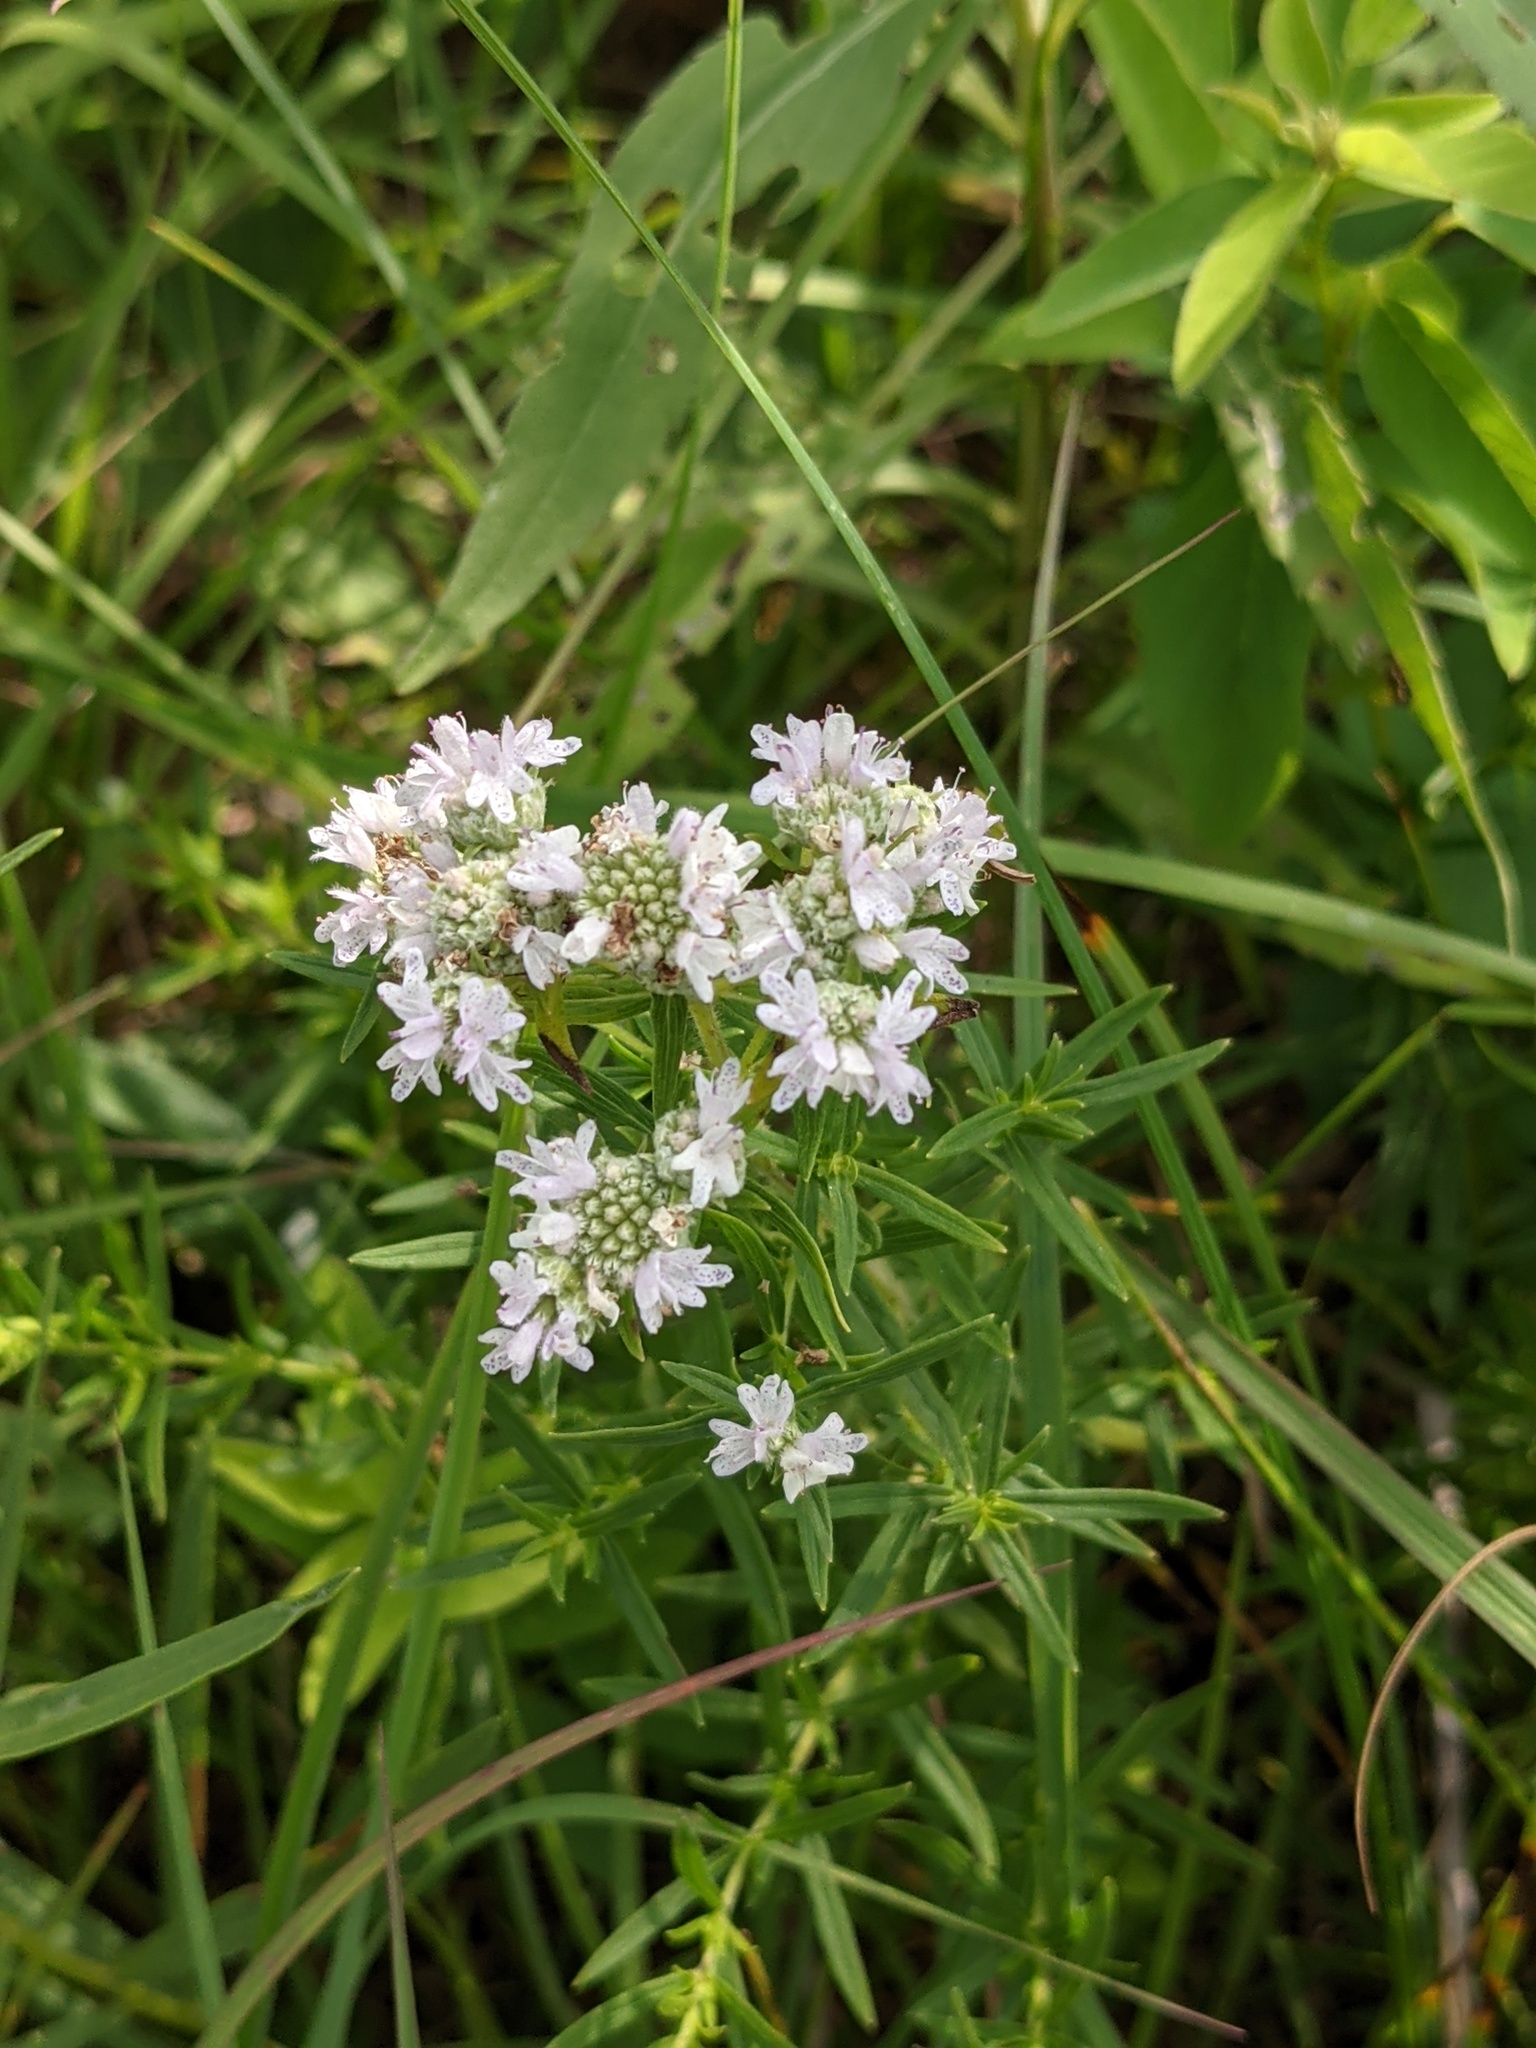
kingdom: Plantae
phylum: Tracheophyta
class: Magnoliopsida
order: Lamiales
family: Lamiaceae
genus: Pycnanthemum
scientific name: Pycnanthemum virginianum
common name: Virginia mountain-mint
